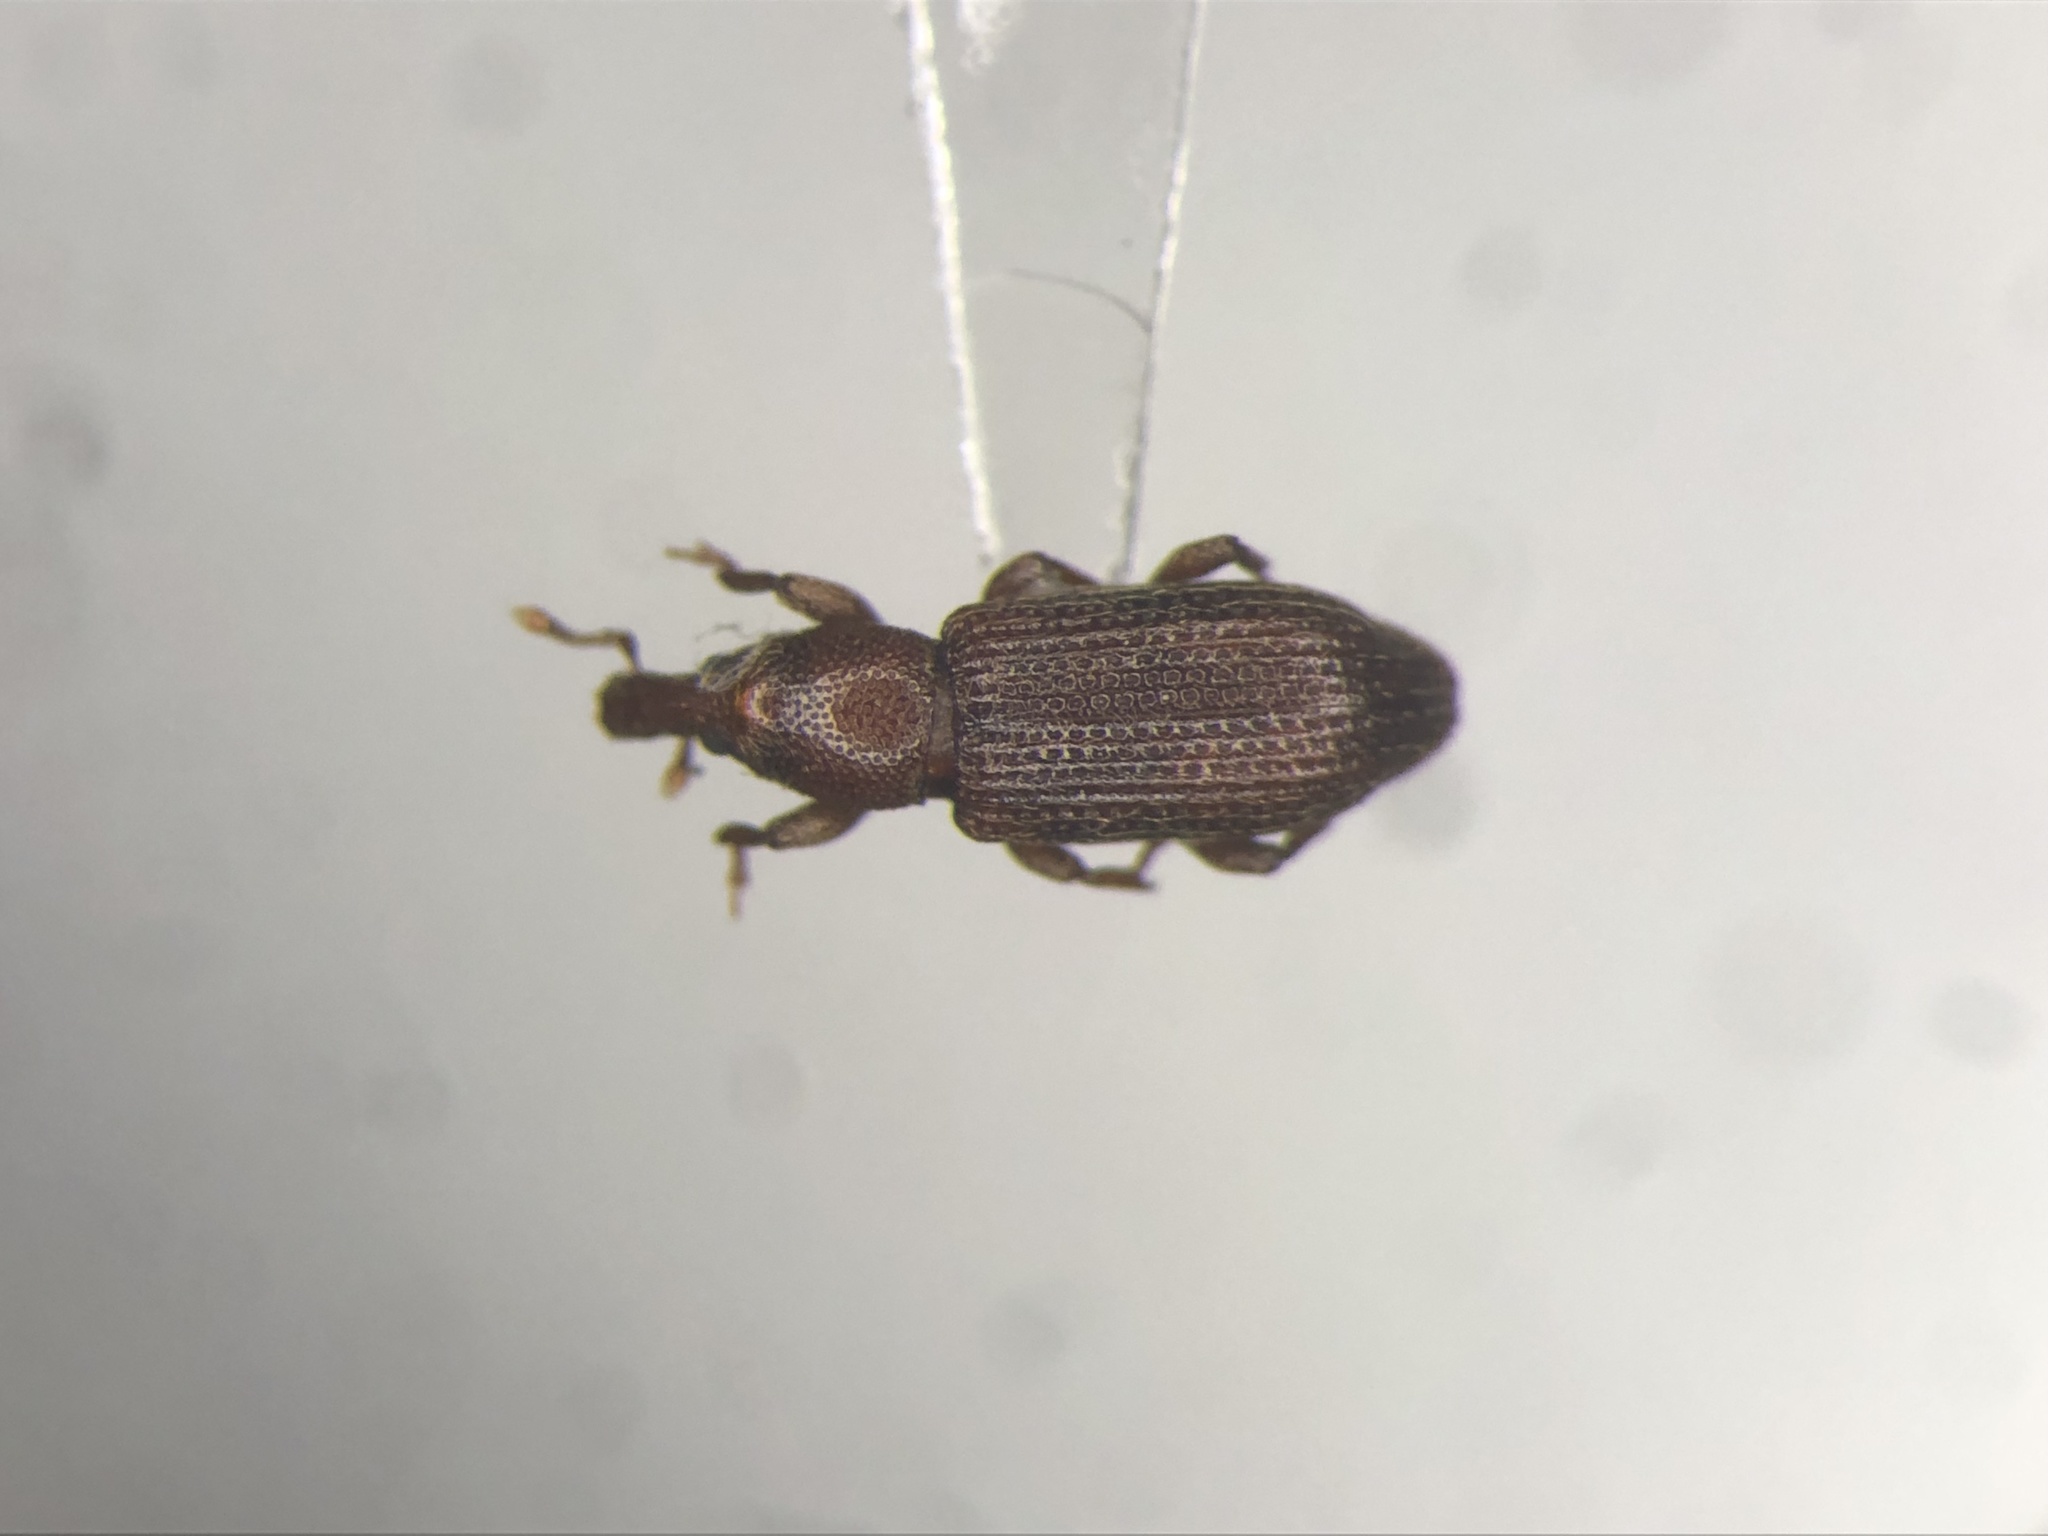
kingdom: Animalia
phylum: Arthropoda
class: Insecta
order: Coleoptera
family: Curculionidae
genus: Carphonotus
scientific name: Carphonotus testaceus
